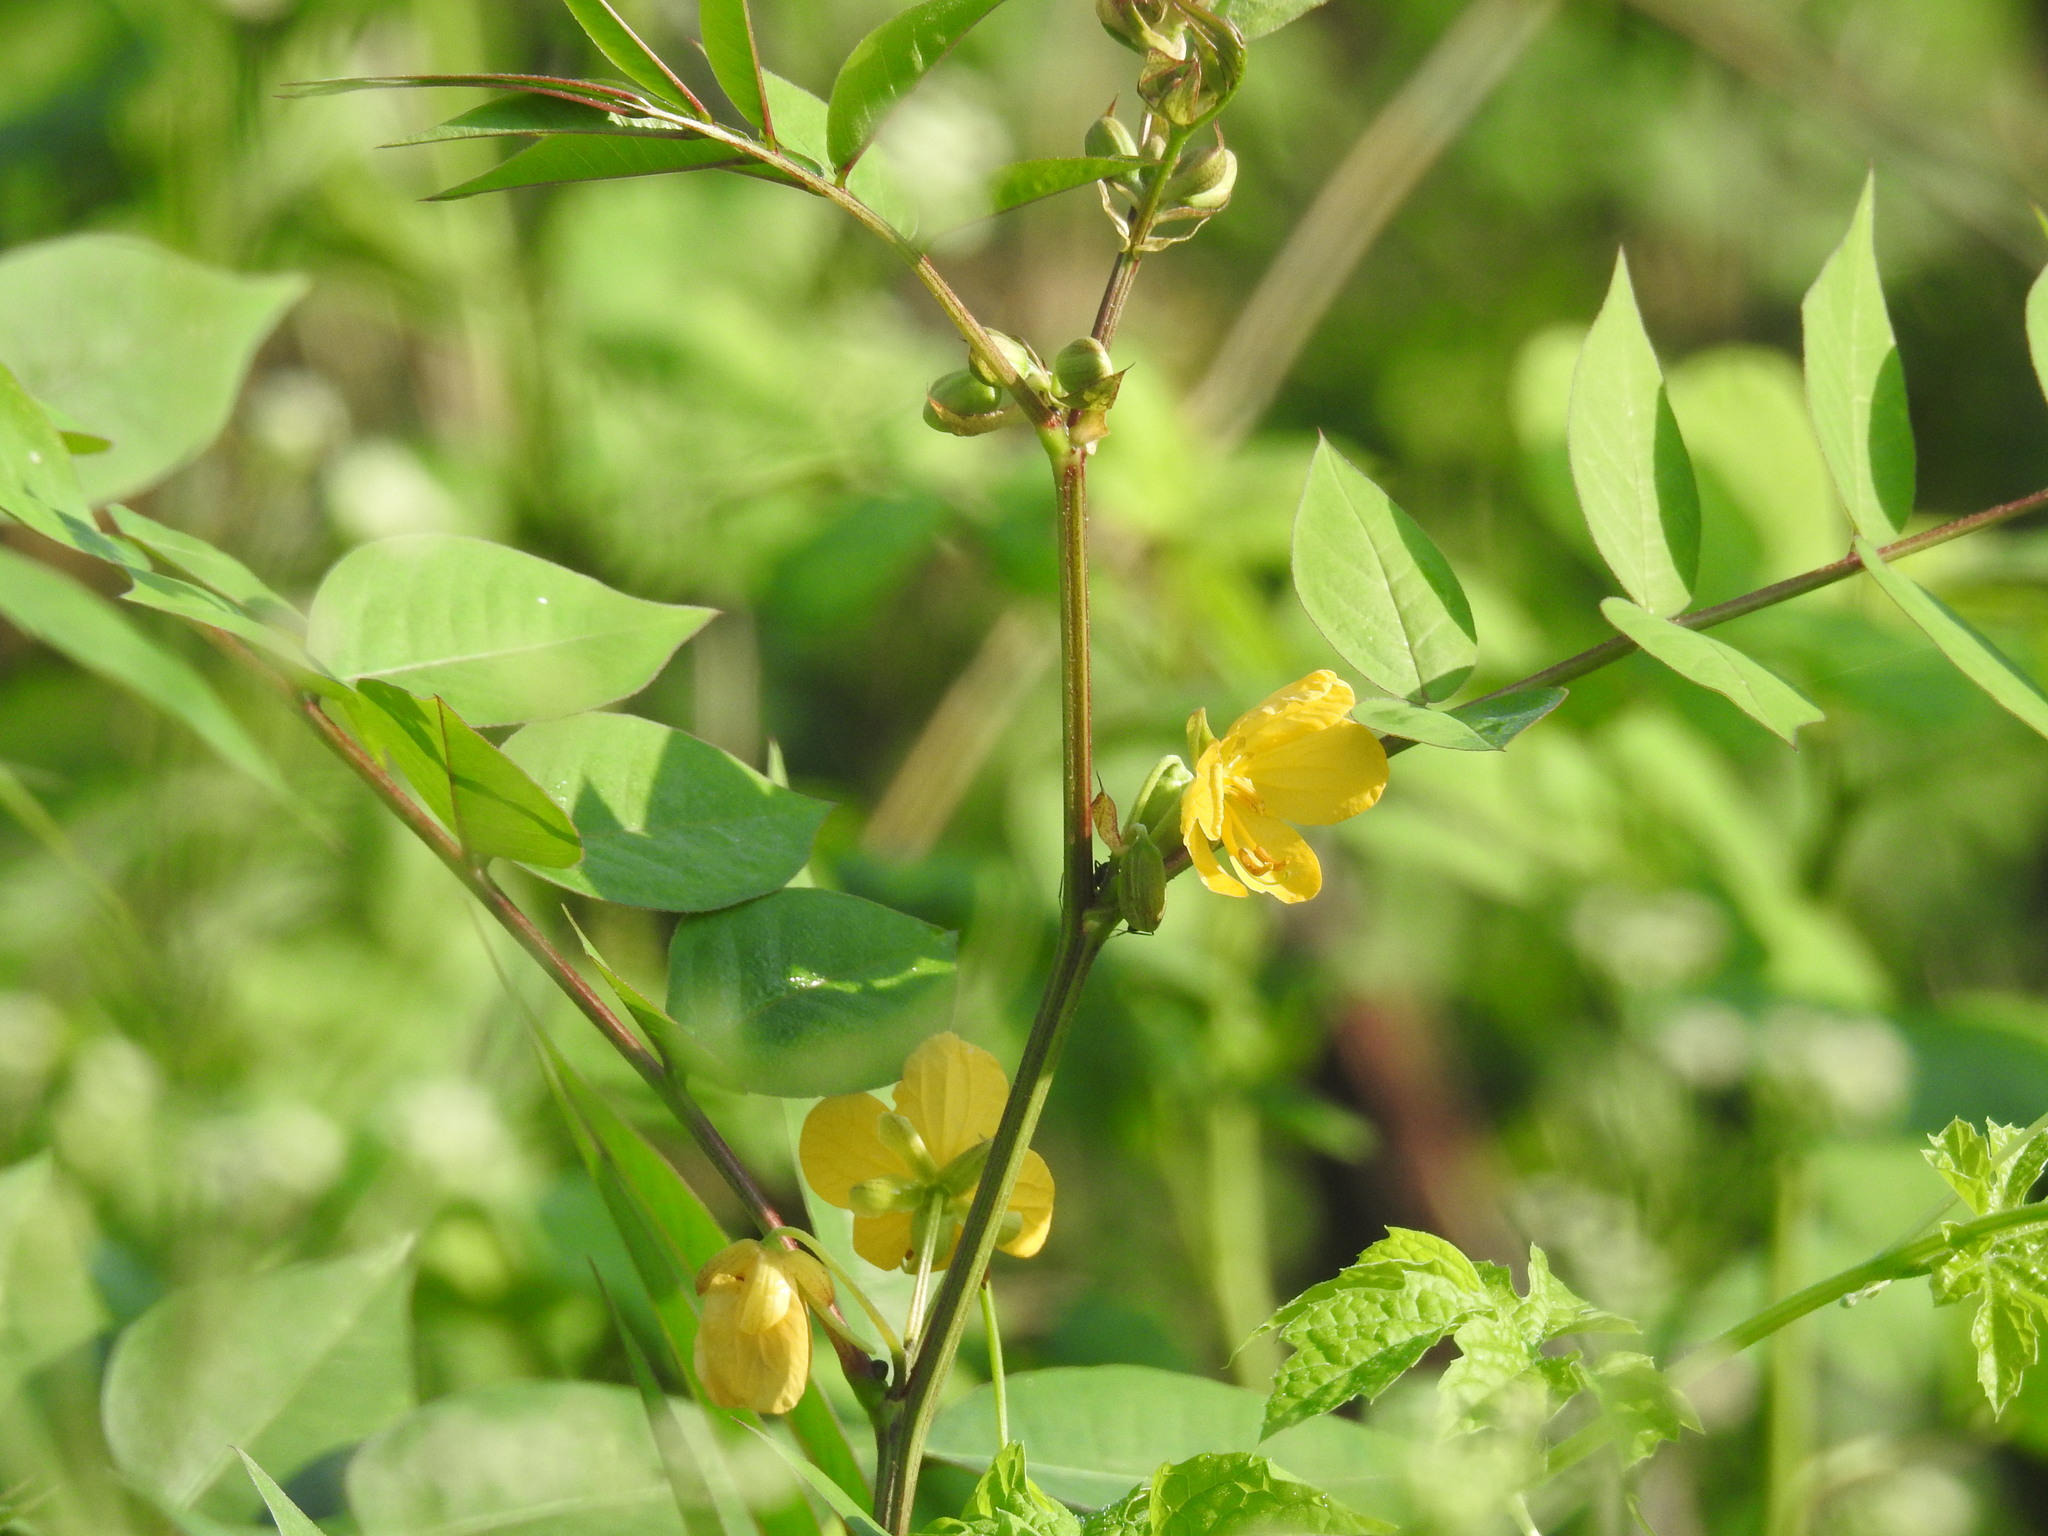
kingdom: Plantae
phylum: Tracheophyta
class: Magnoliopsida
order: Fabales
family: Fabaceae
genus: Senna
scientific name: Senna occidentalis
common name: Septicweed
